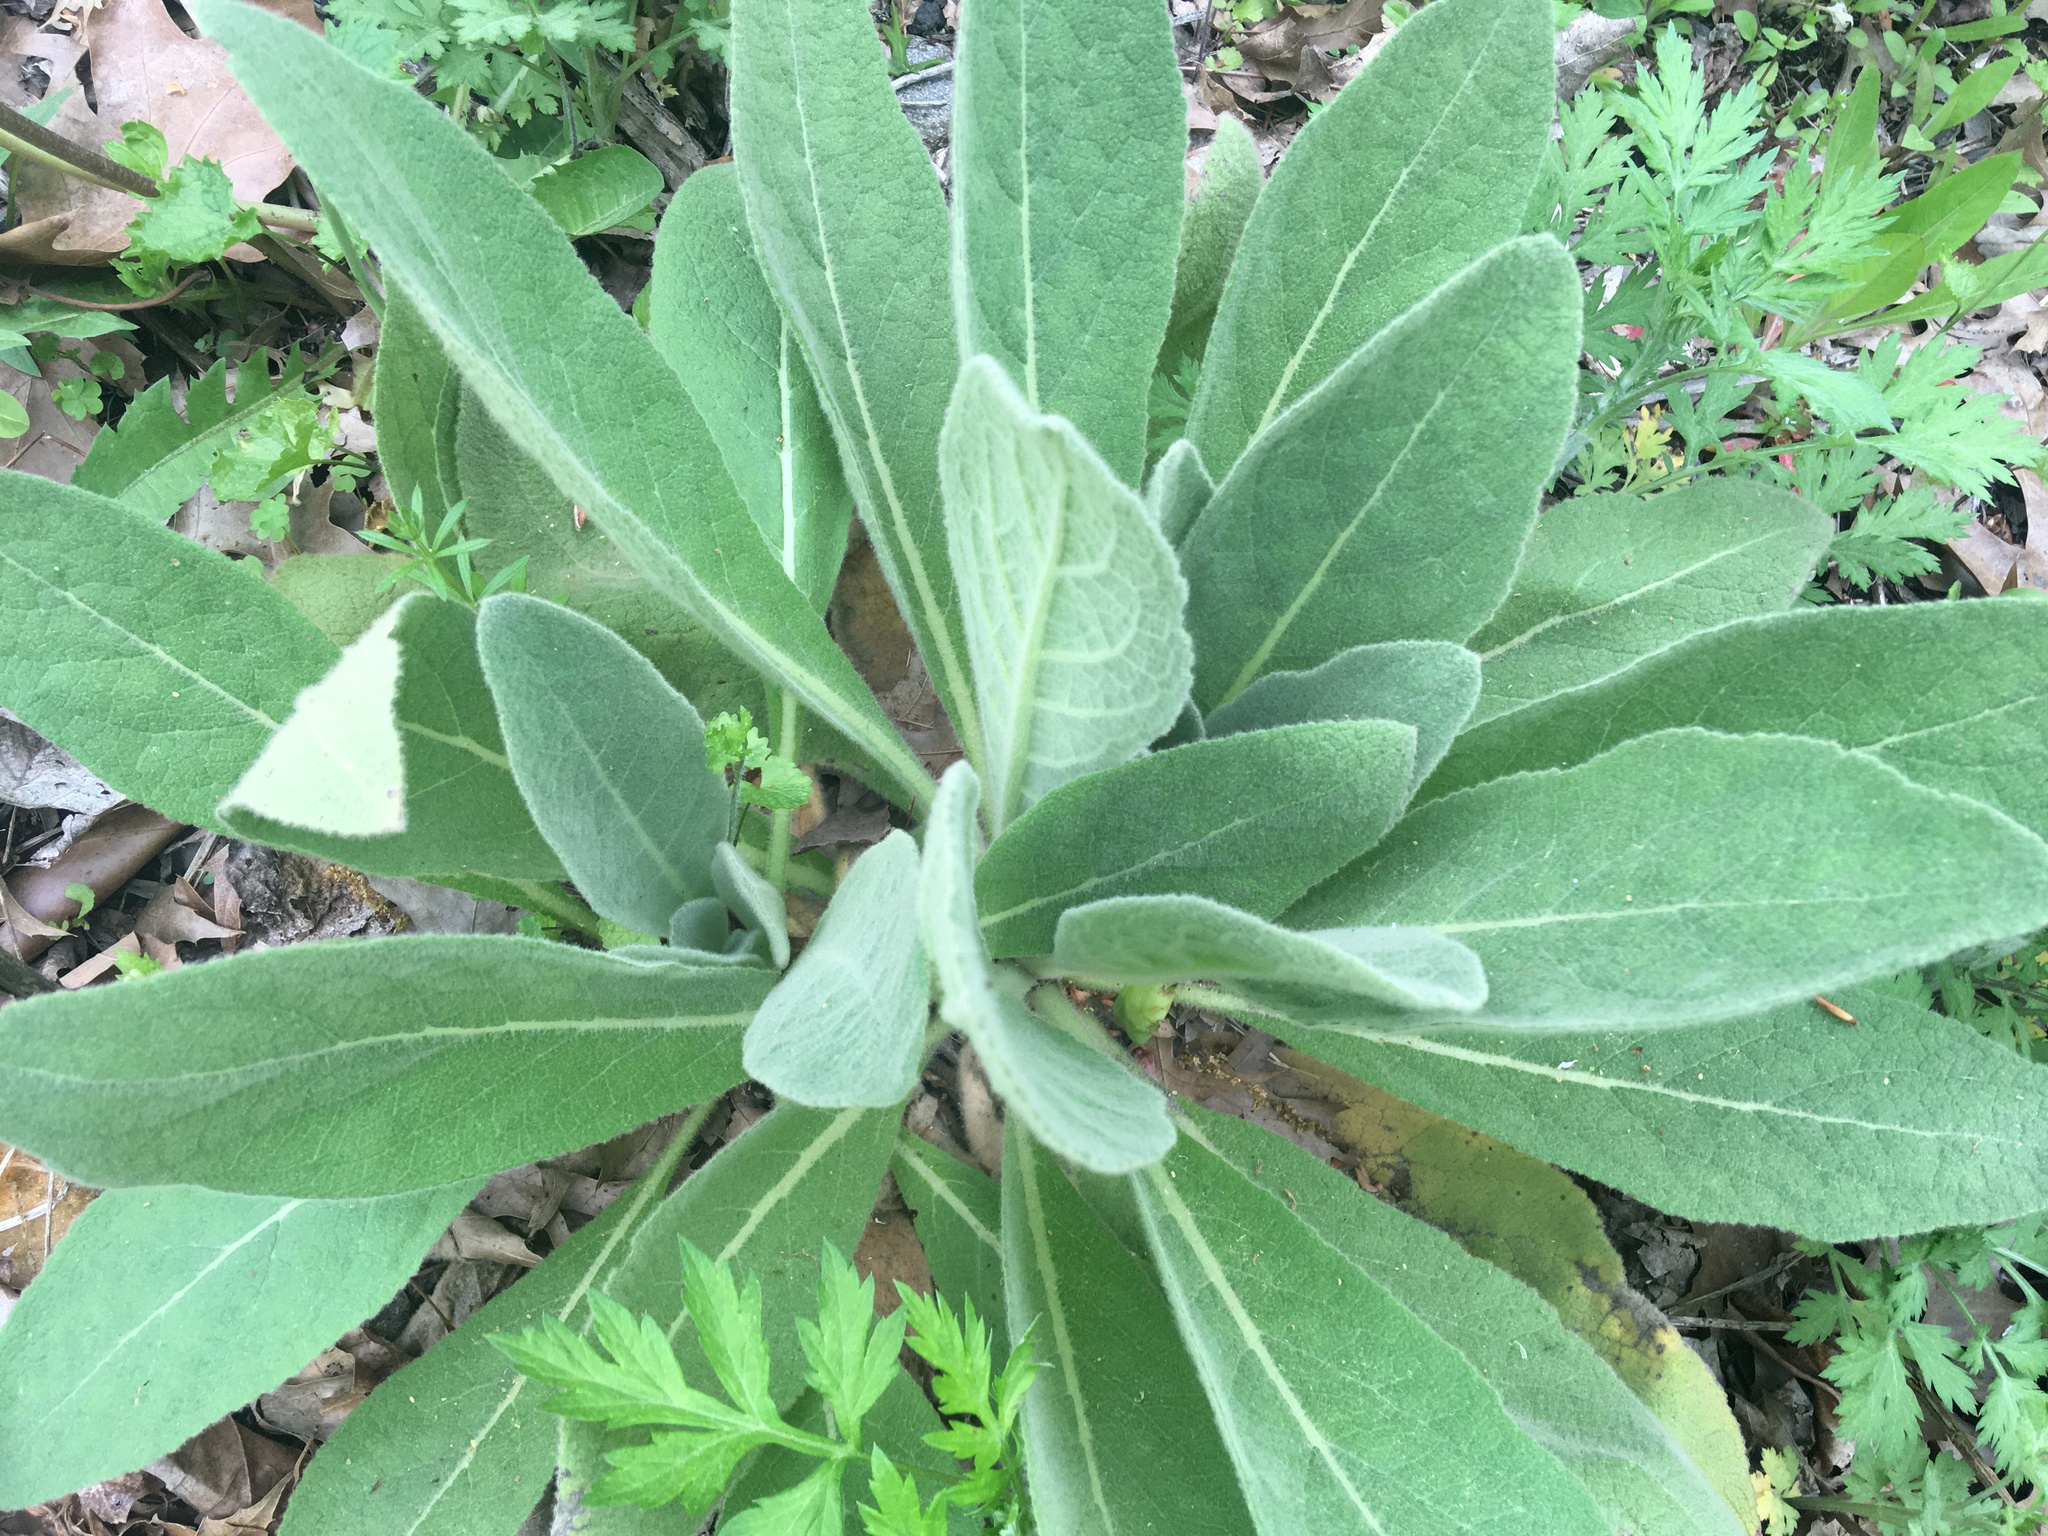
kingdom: Plantae
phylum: Tracheophyta
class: Magnoliopsida
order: Lamiales
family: Scrophulariaceae
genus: Verbascum
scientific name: Verbascum thapsus
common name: Common mullein
